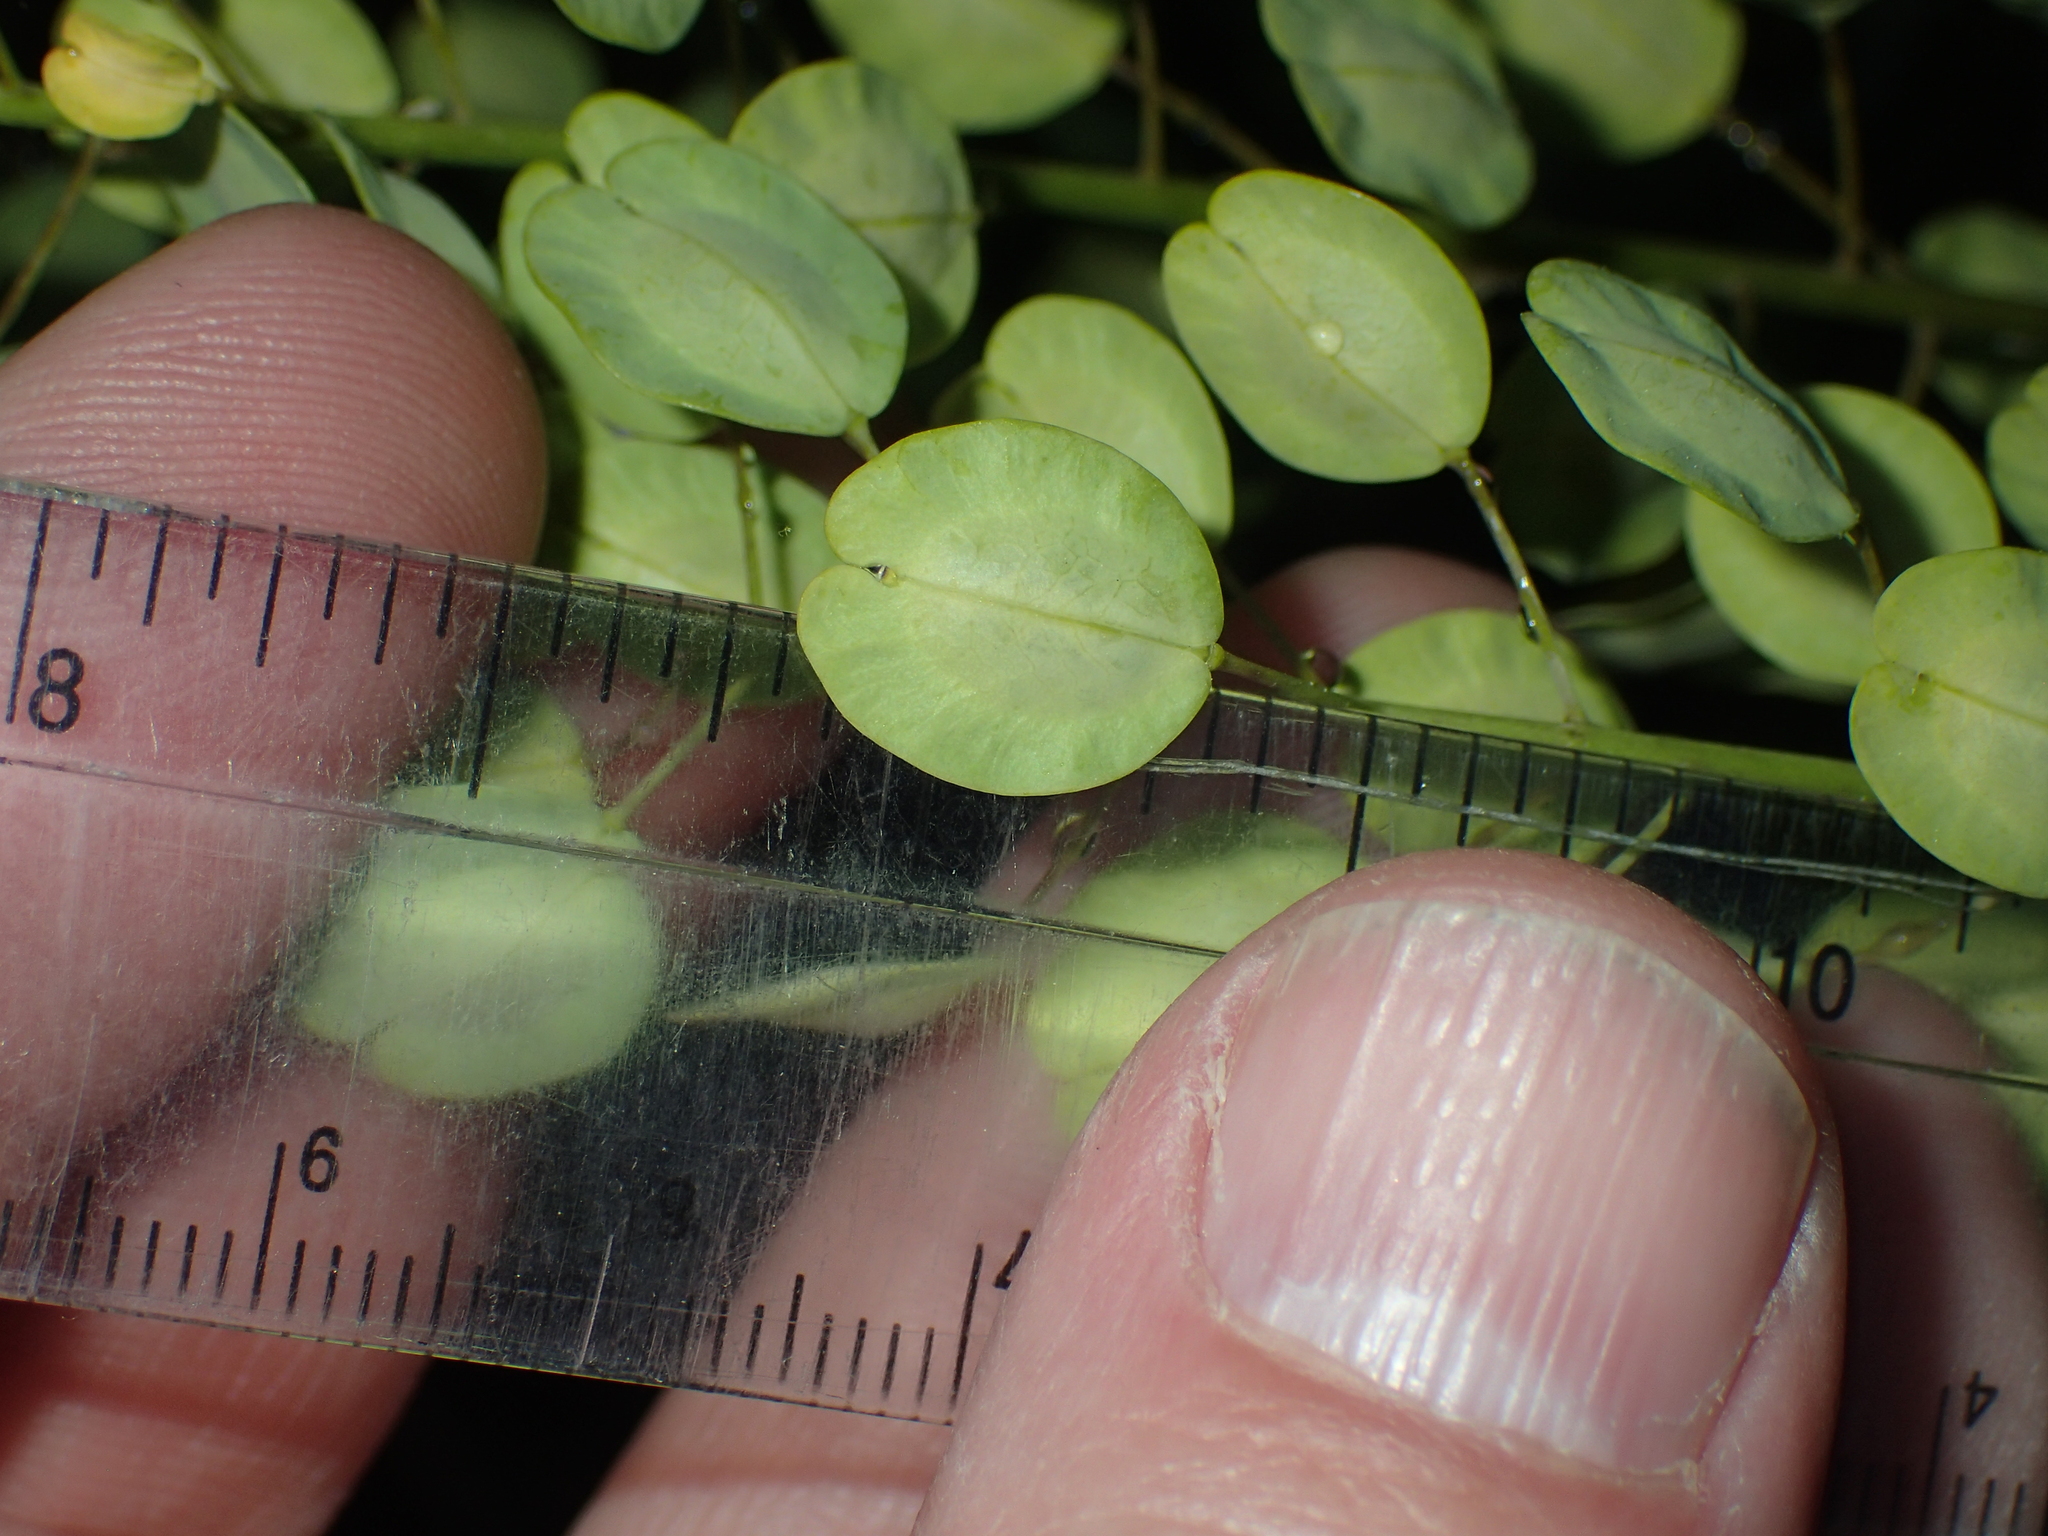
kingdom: Plantae
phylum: Tracheophyta
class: Magnoliopsida
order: Brassicales
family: Brassicaceae
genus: Thlaspi
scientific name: Thlaspi arvense
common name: Field pennycress
